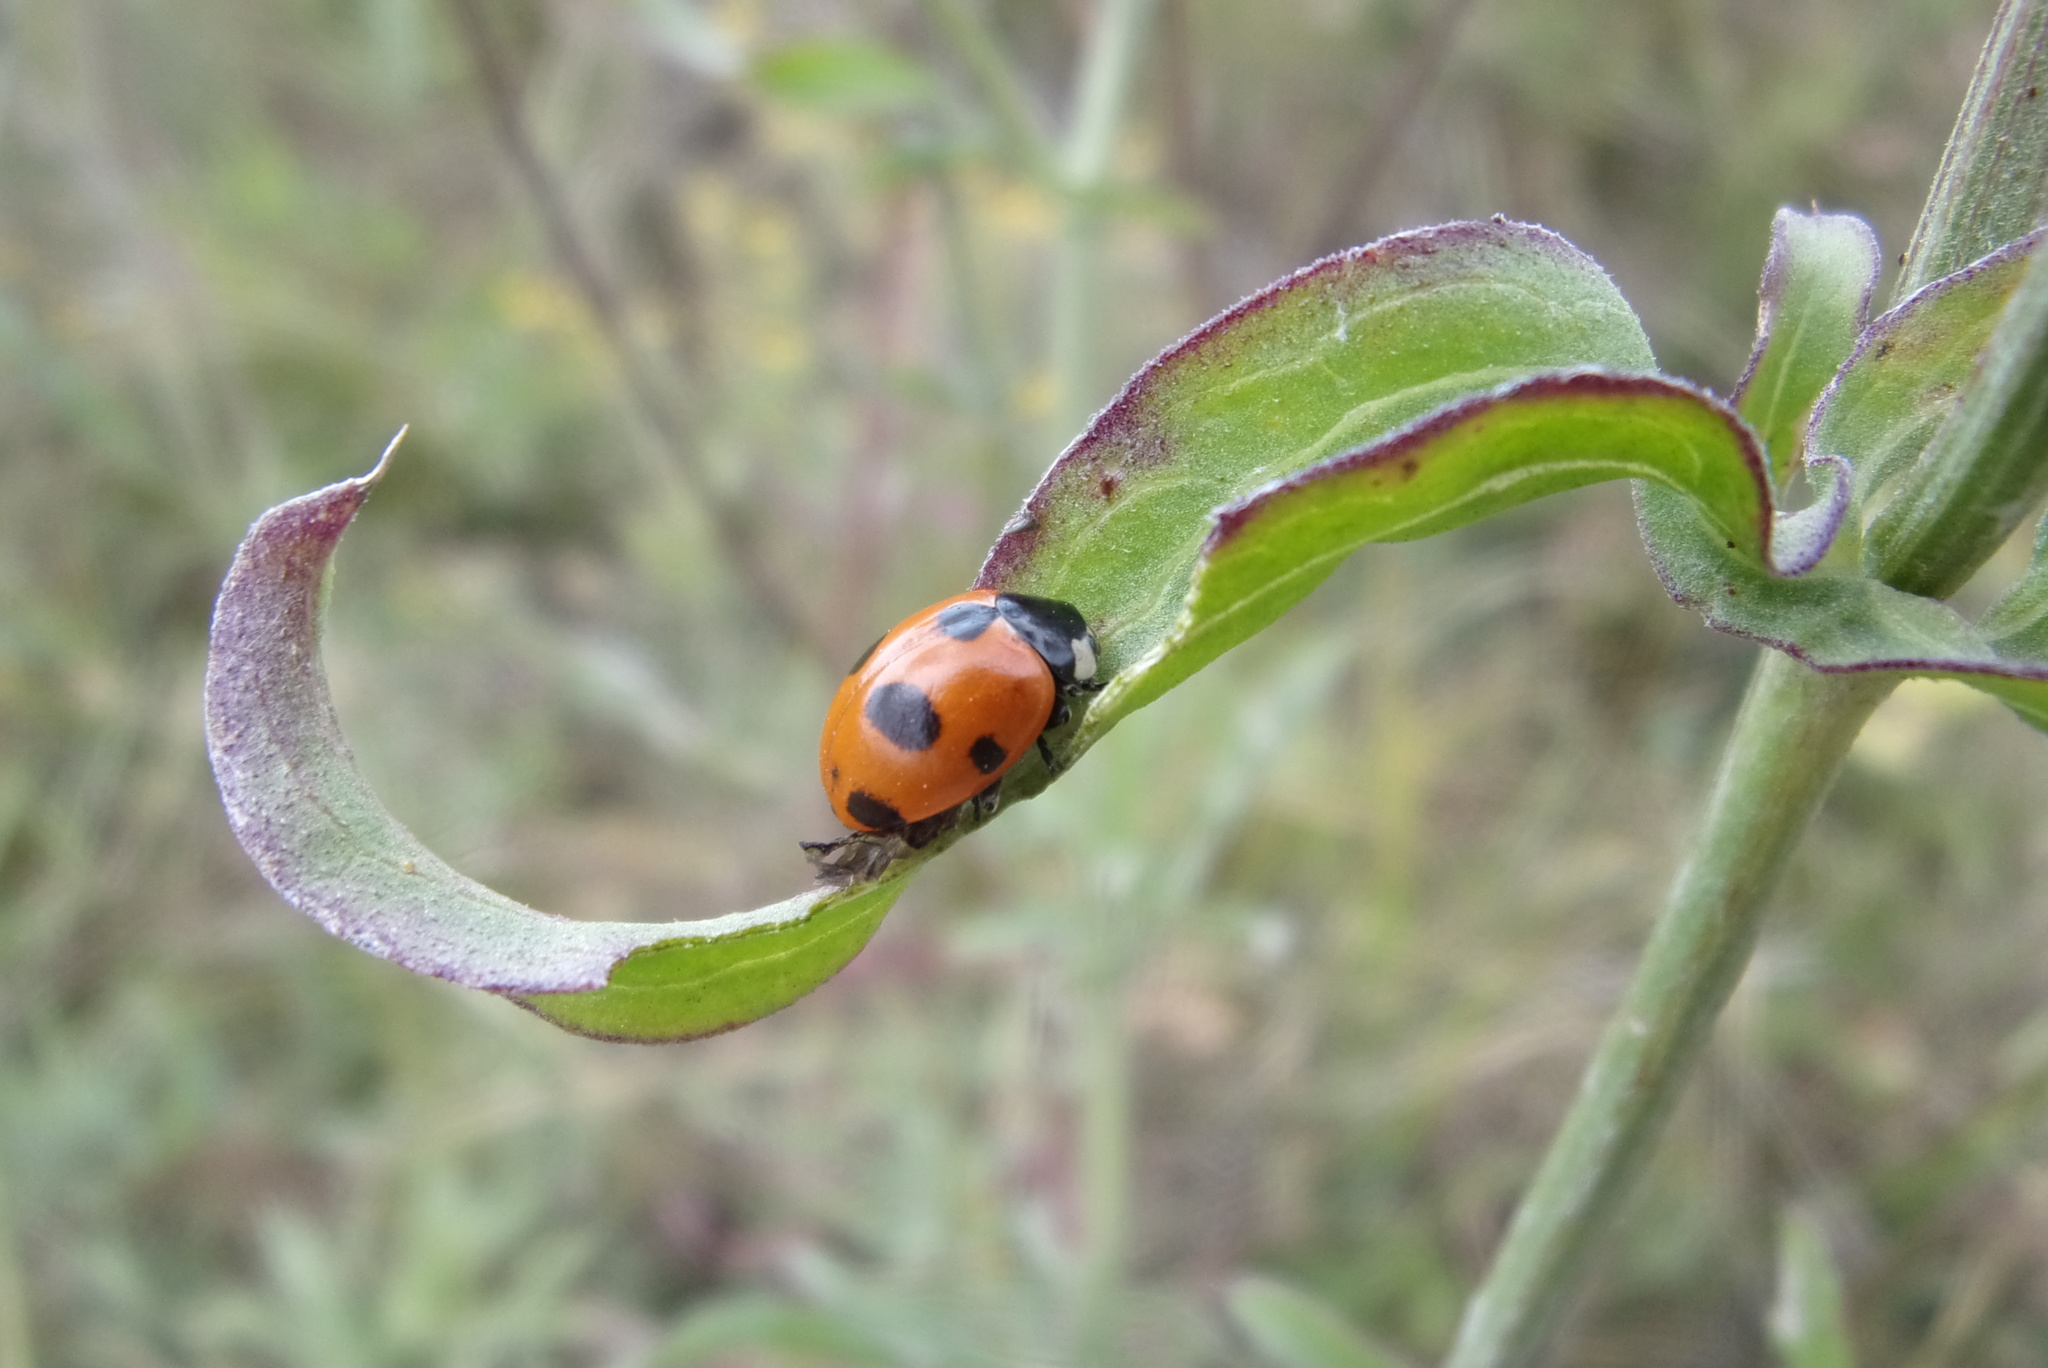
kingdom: Animalia
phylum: Arthropoda
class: Insecta
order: Coleoptera
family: Coccinellidae
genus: Coccinella
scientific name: Coccinella septempunctata
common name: Sevenspotted lady beetle
